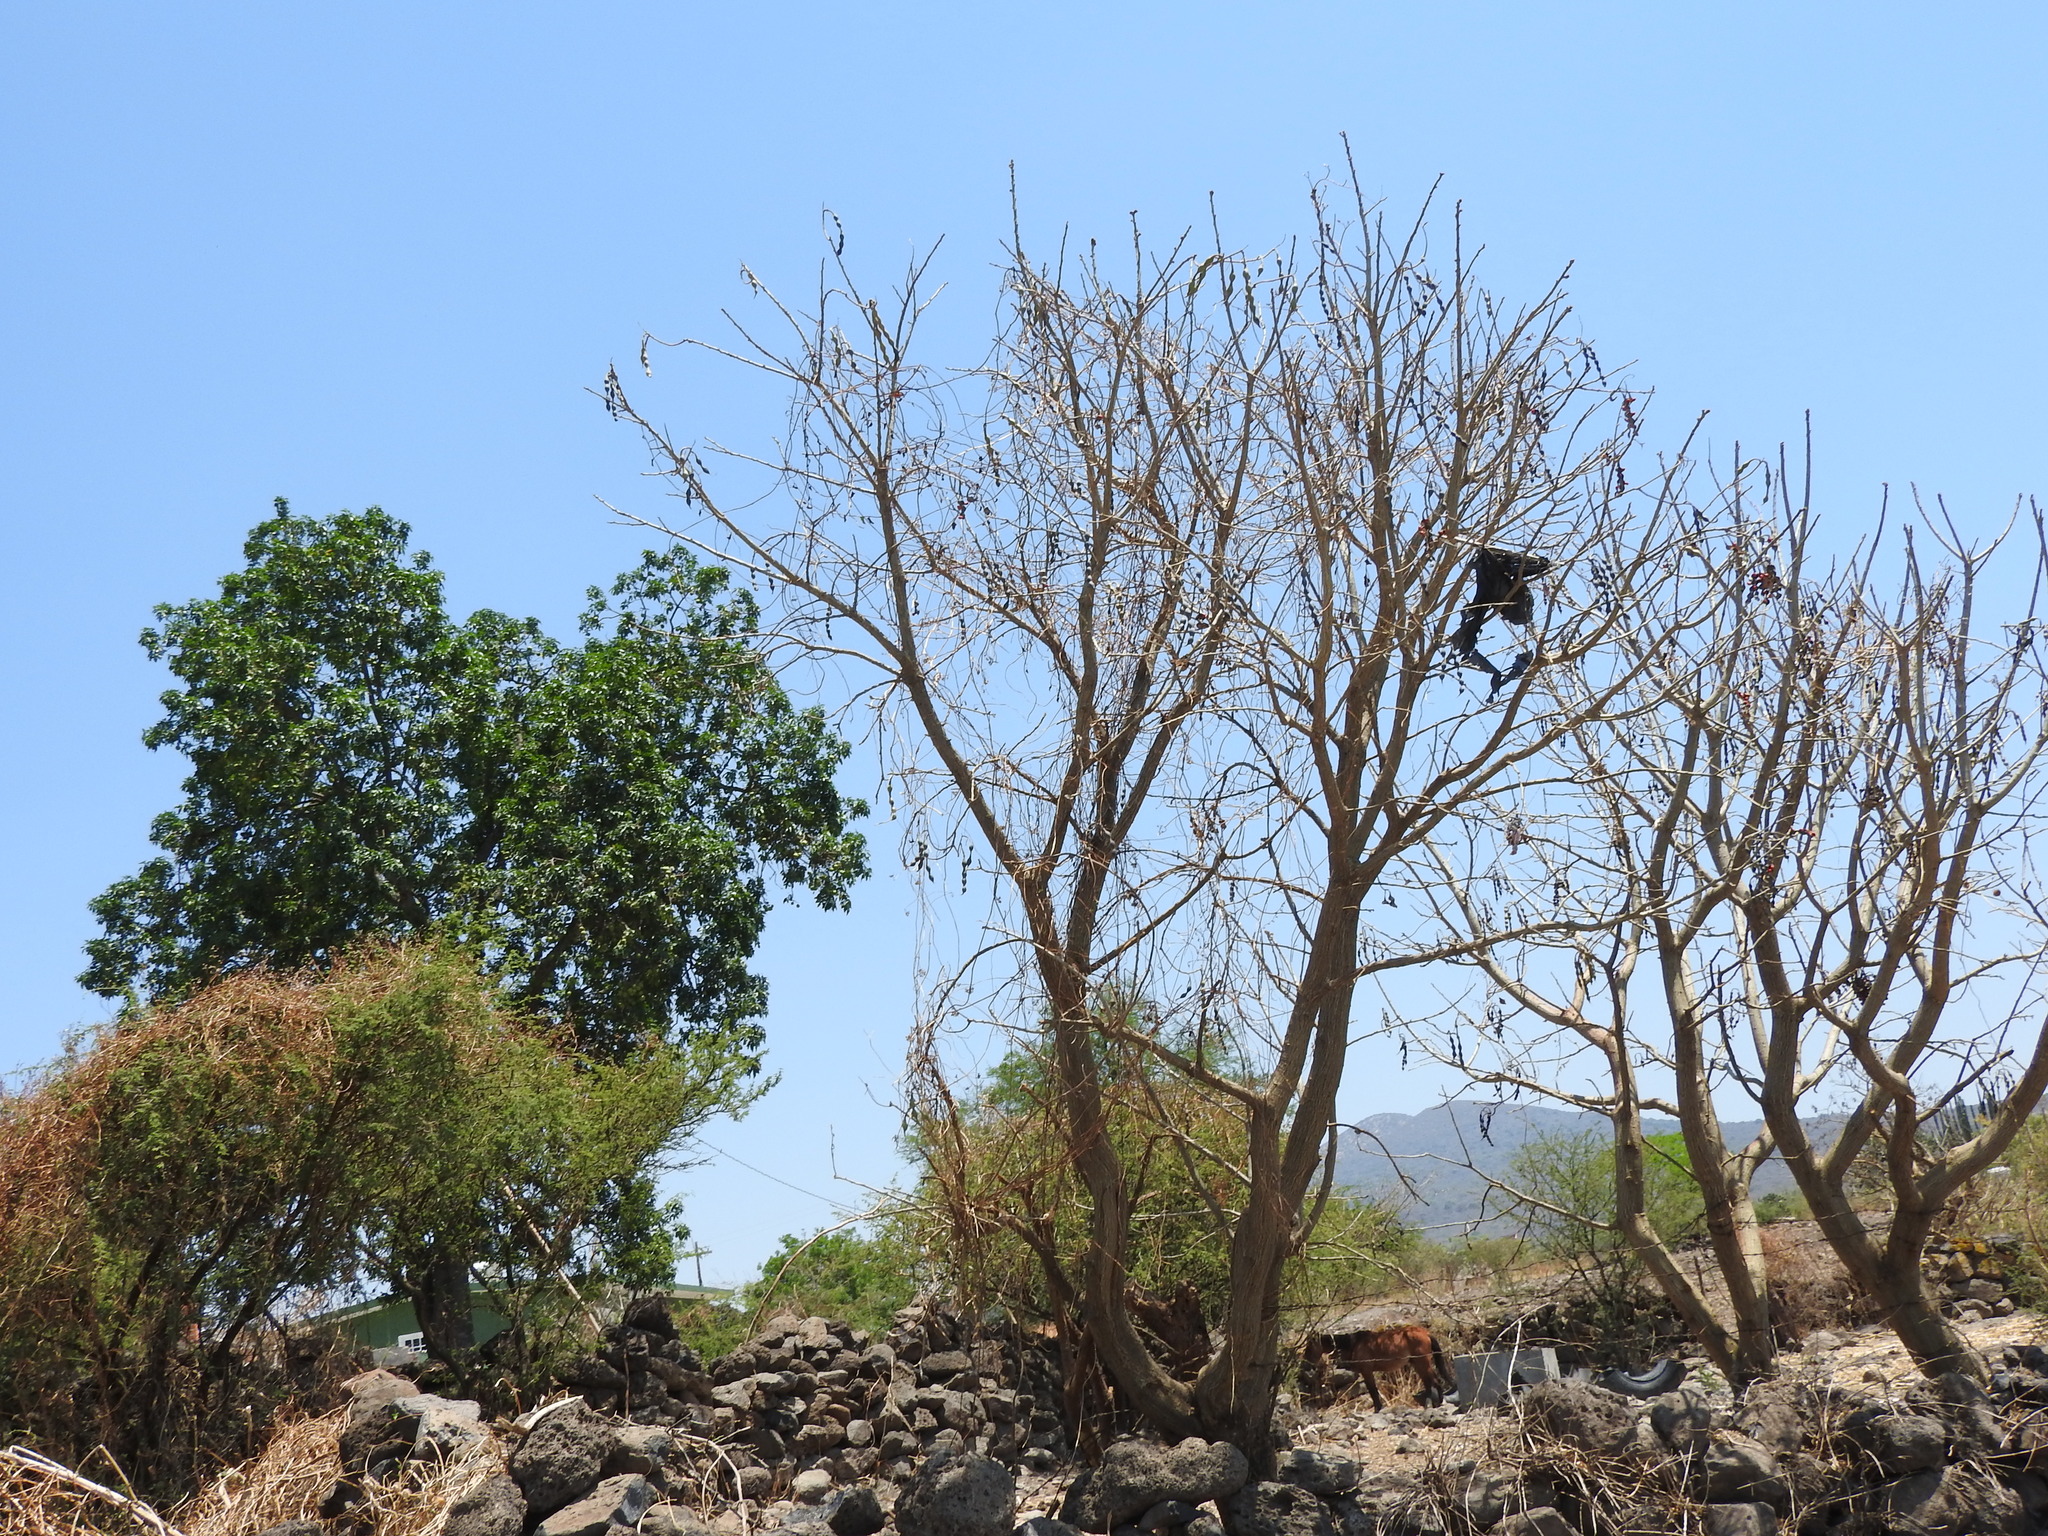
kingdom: Plantae
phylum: Tracheophyta
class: Magnoliopsida
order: Fabales
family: Fabaceae
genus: Erythrina
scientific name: Erythrina americana
